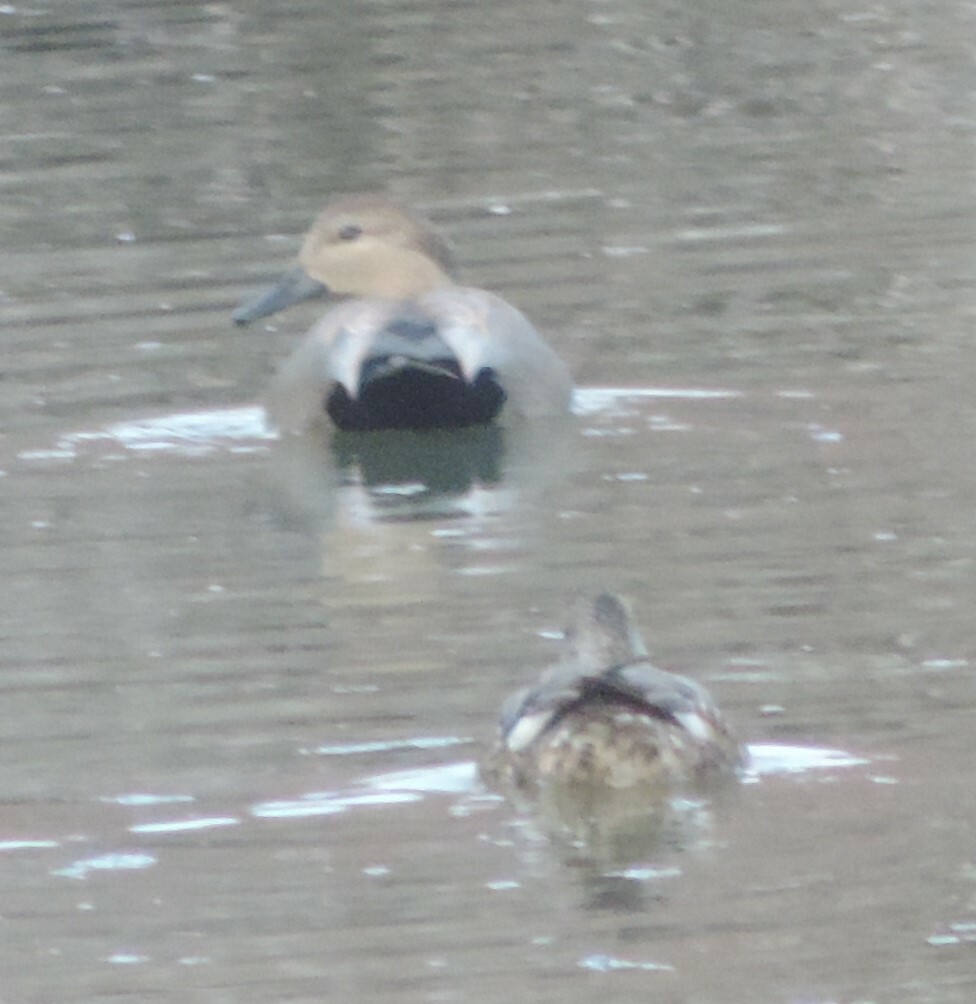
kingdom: Animalia
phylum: Chordata
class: Aves
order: Anseriformes
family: Anatidae
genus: Mareca
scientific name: Mareca strepera
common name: Gadwall
